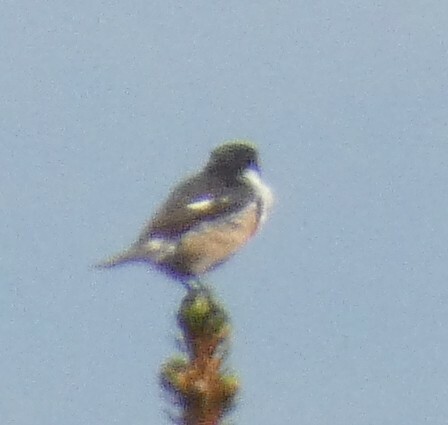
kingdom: Animalia
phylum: Chordata
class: Aves
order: Passeriformes
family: Muscicapidae
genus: Saxicola
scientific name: Saxicola rubicola
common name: European stonechat
